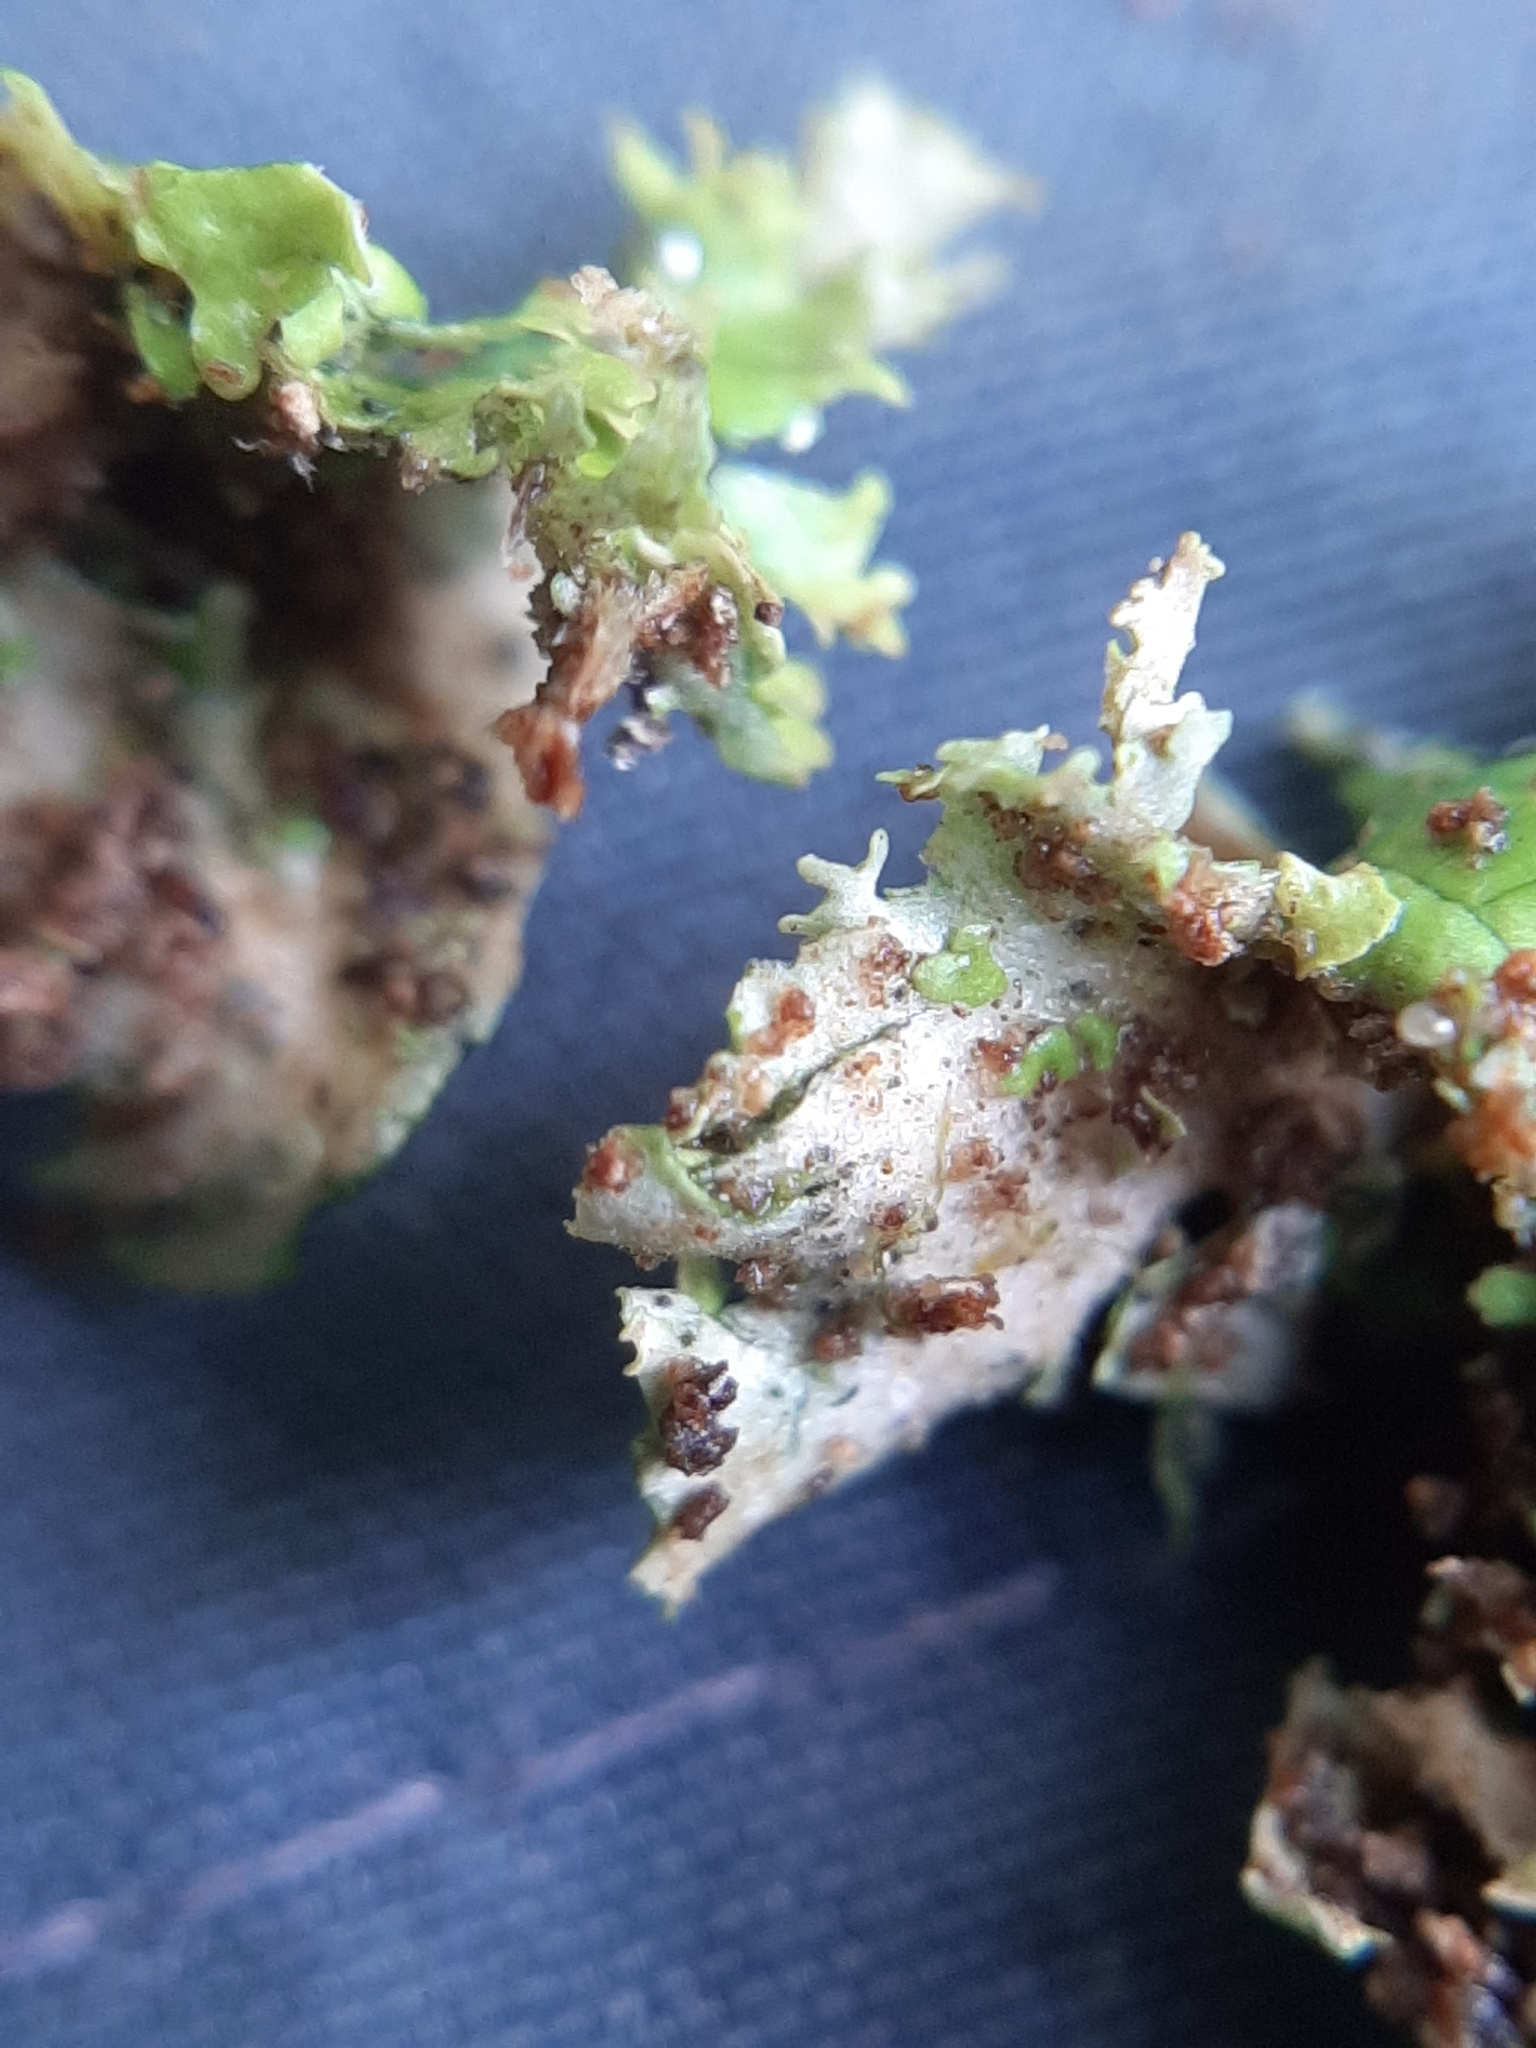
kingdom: Fungi
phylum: Ascomycota
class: Lecanoromycetes
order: Peltigerales
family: Lobariaceae
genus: Pseudocyphellaria
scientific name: Pseudocyphellaria multifida
